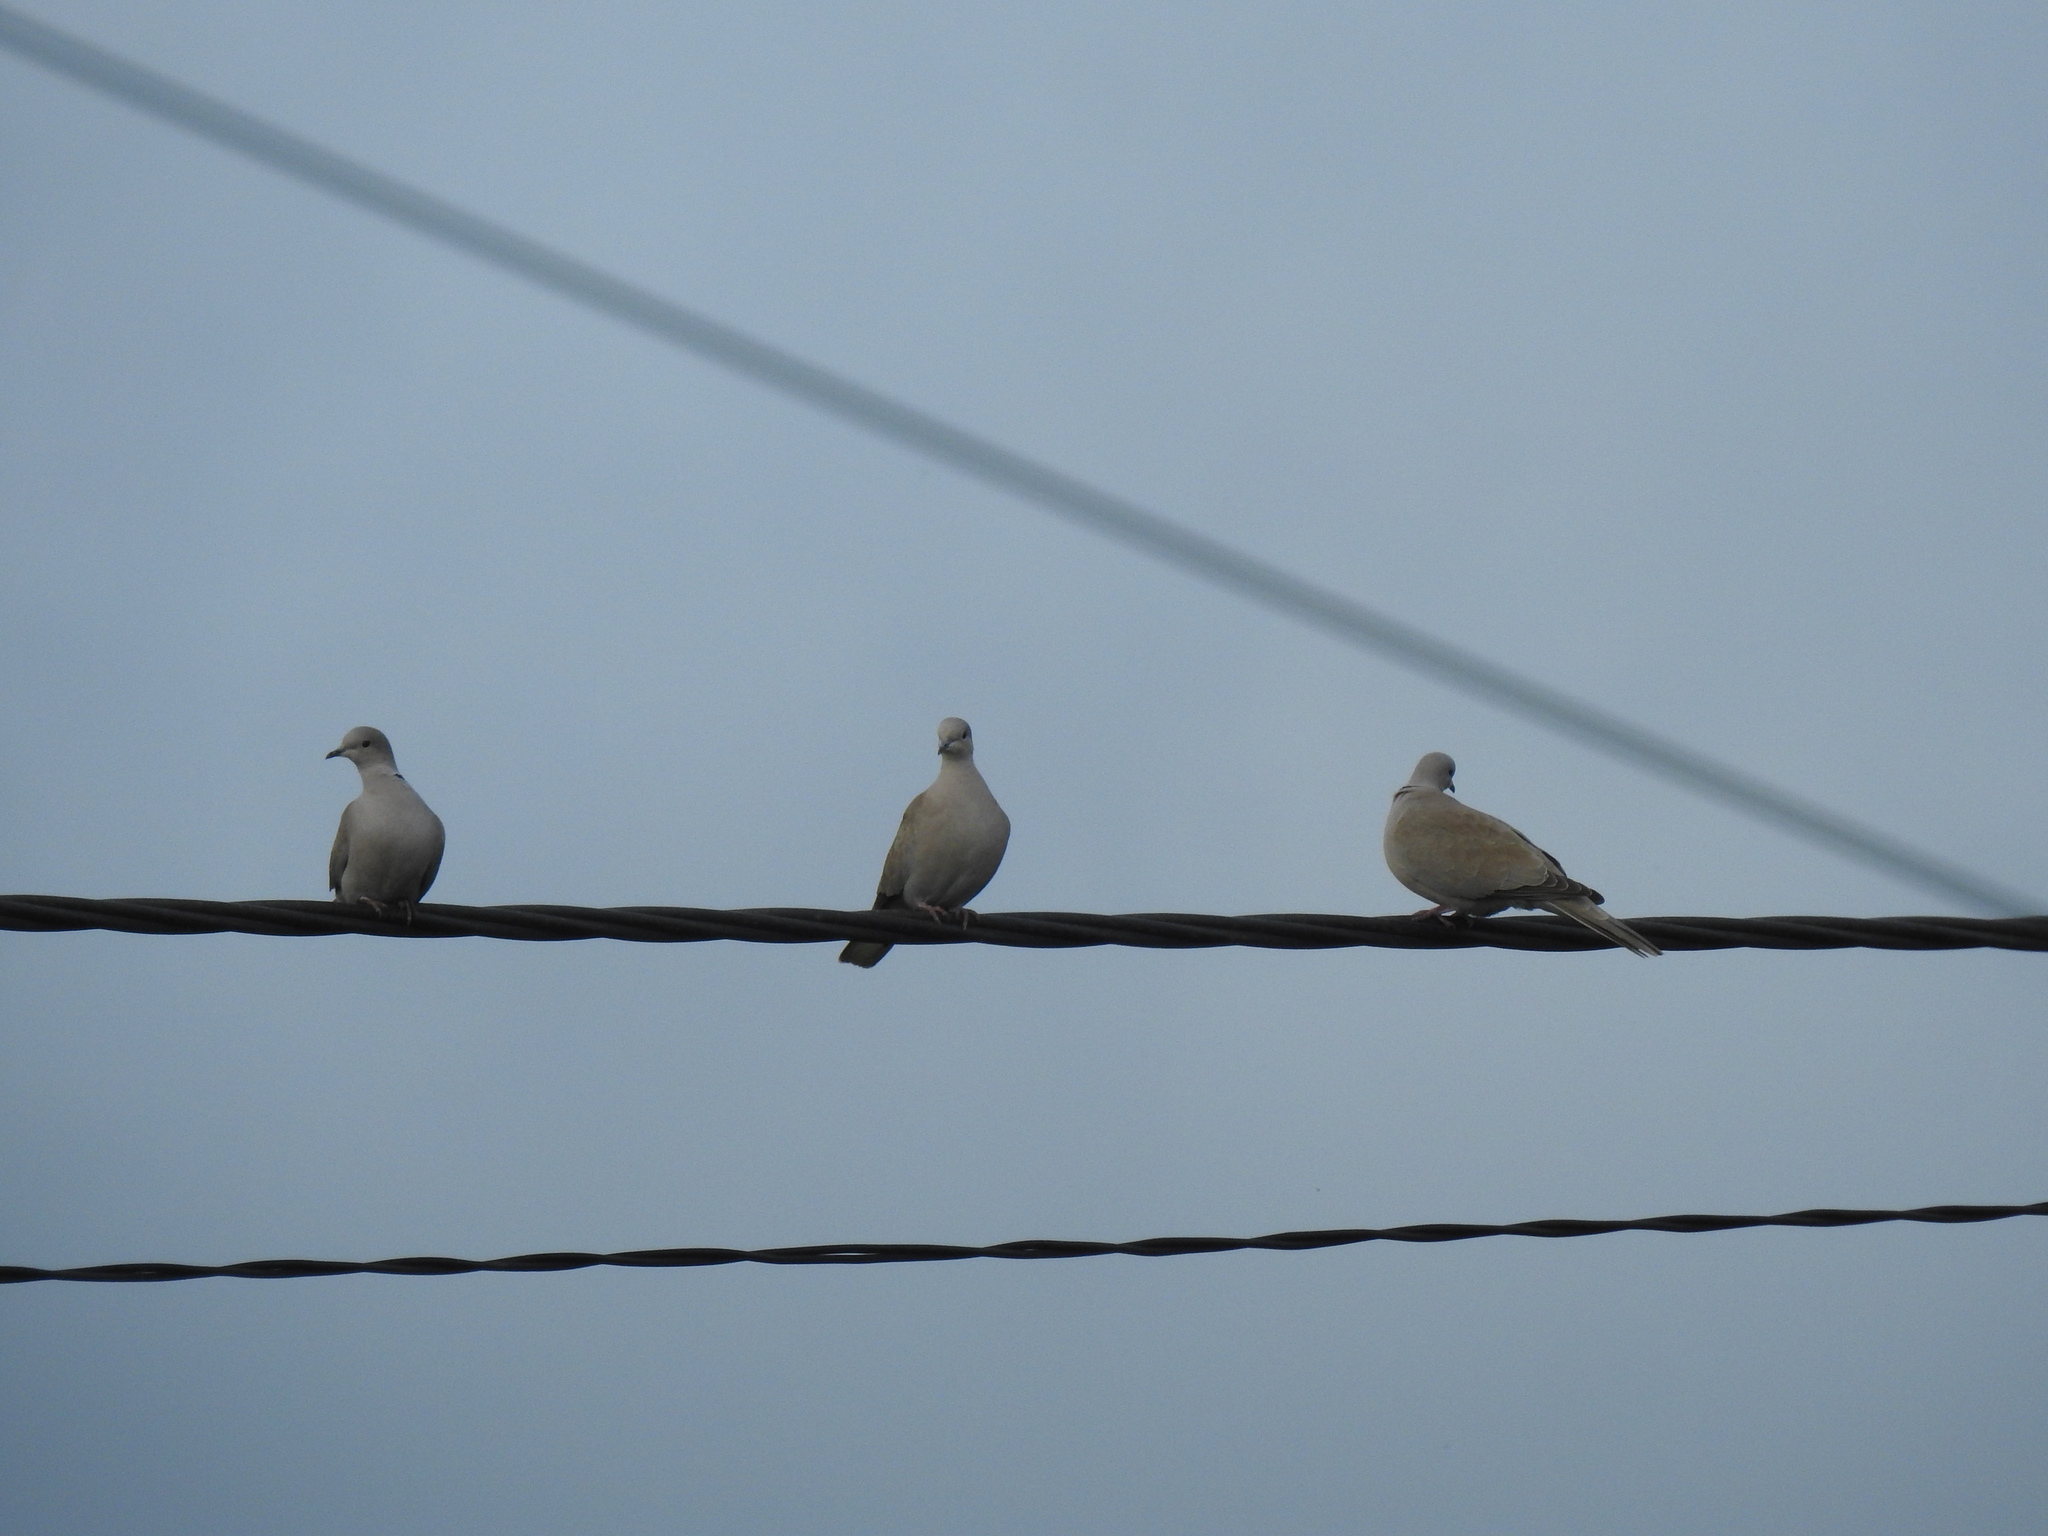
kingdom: Animalia
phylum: Chordata
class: Aves
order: Columbiformes
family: Columbidae
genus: Streptopelia
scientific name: Streptopelia decaocto
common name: Eurasian collared dove
